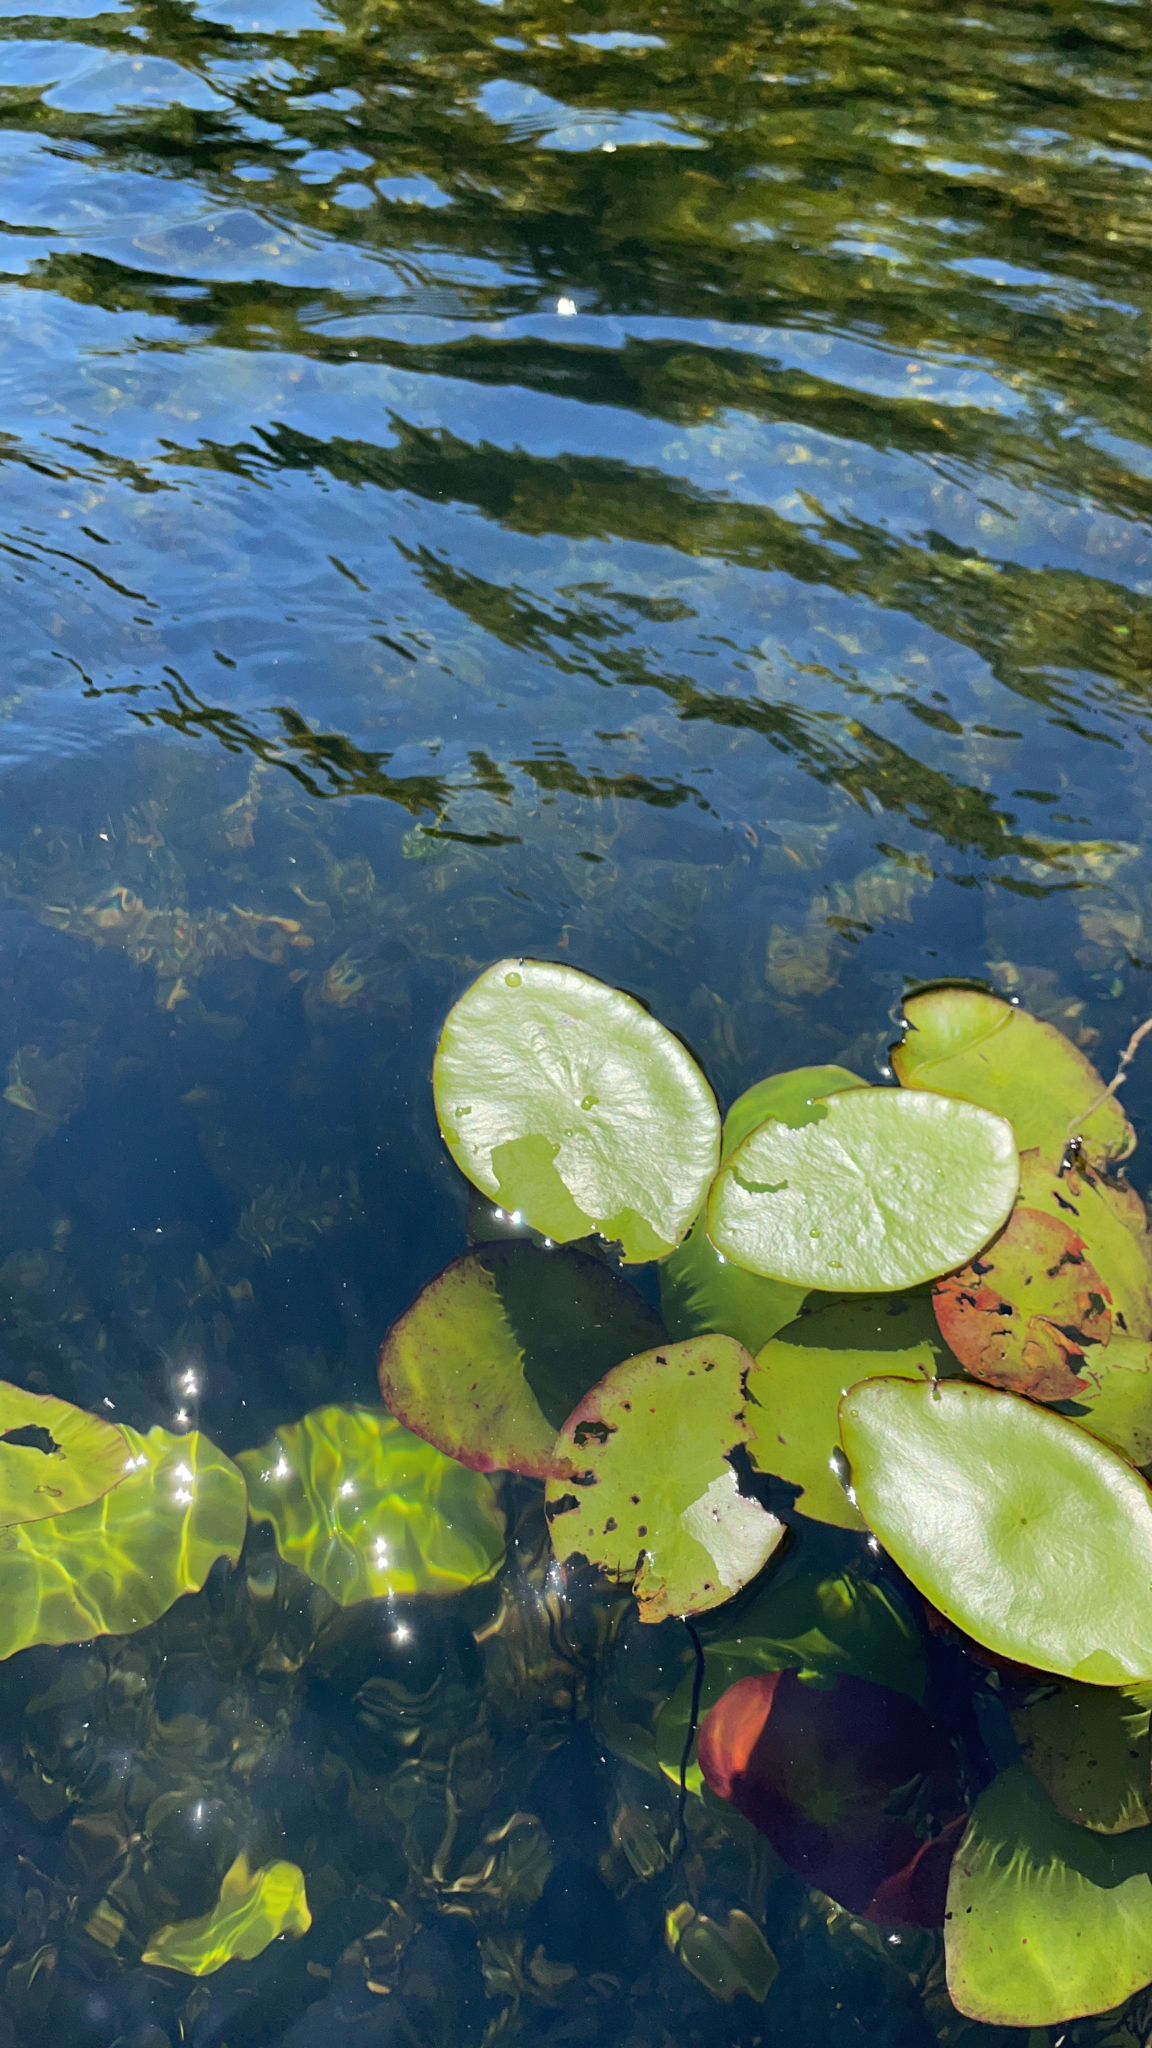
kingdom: Plantae
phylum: Tracheophyta
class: Magnoliopsida
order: Nymphaeales
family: Cabombaceae
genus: Brasenia
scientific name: Brasenia schreberi
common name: Water-shield
